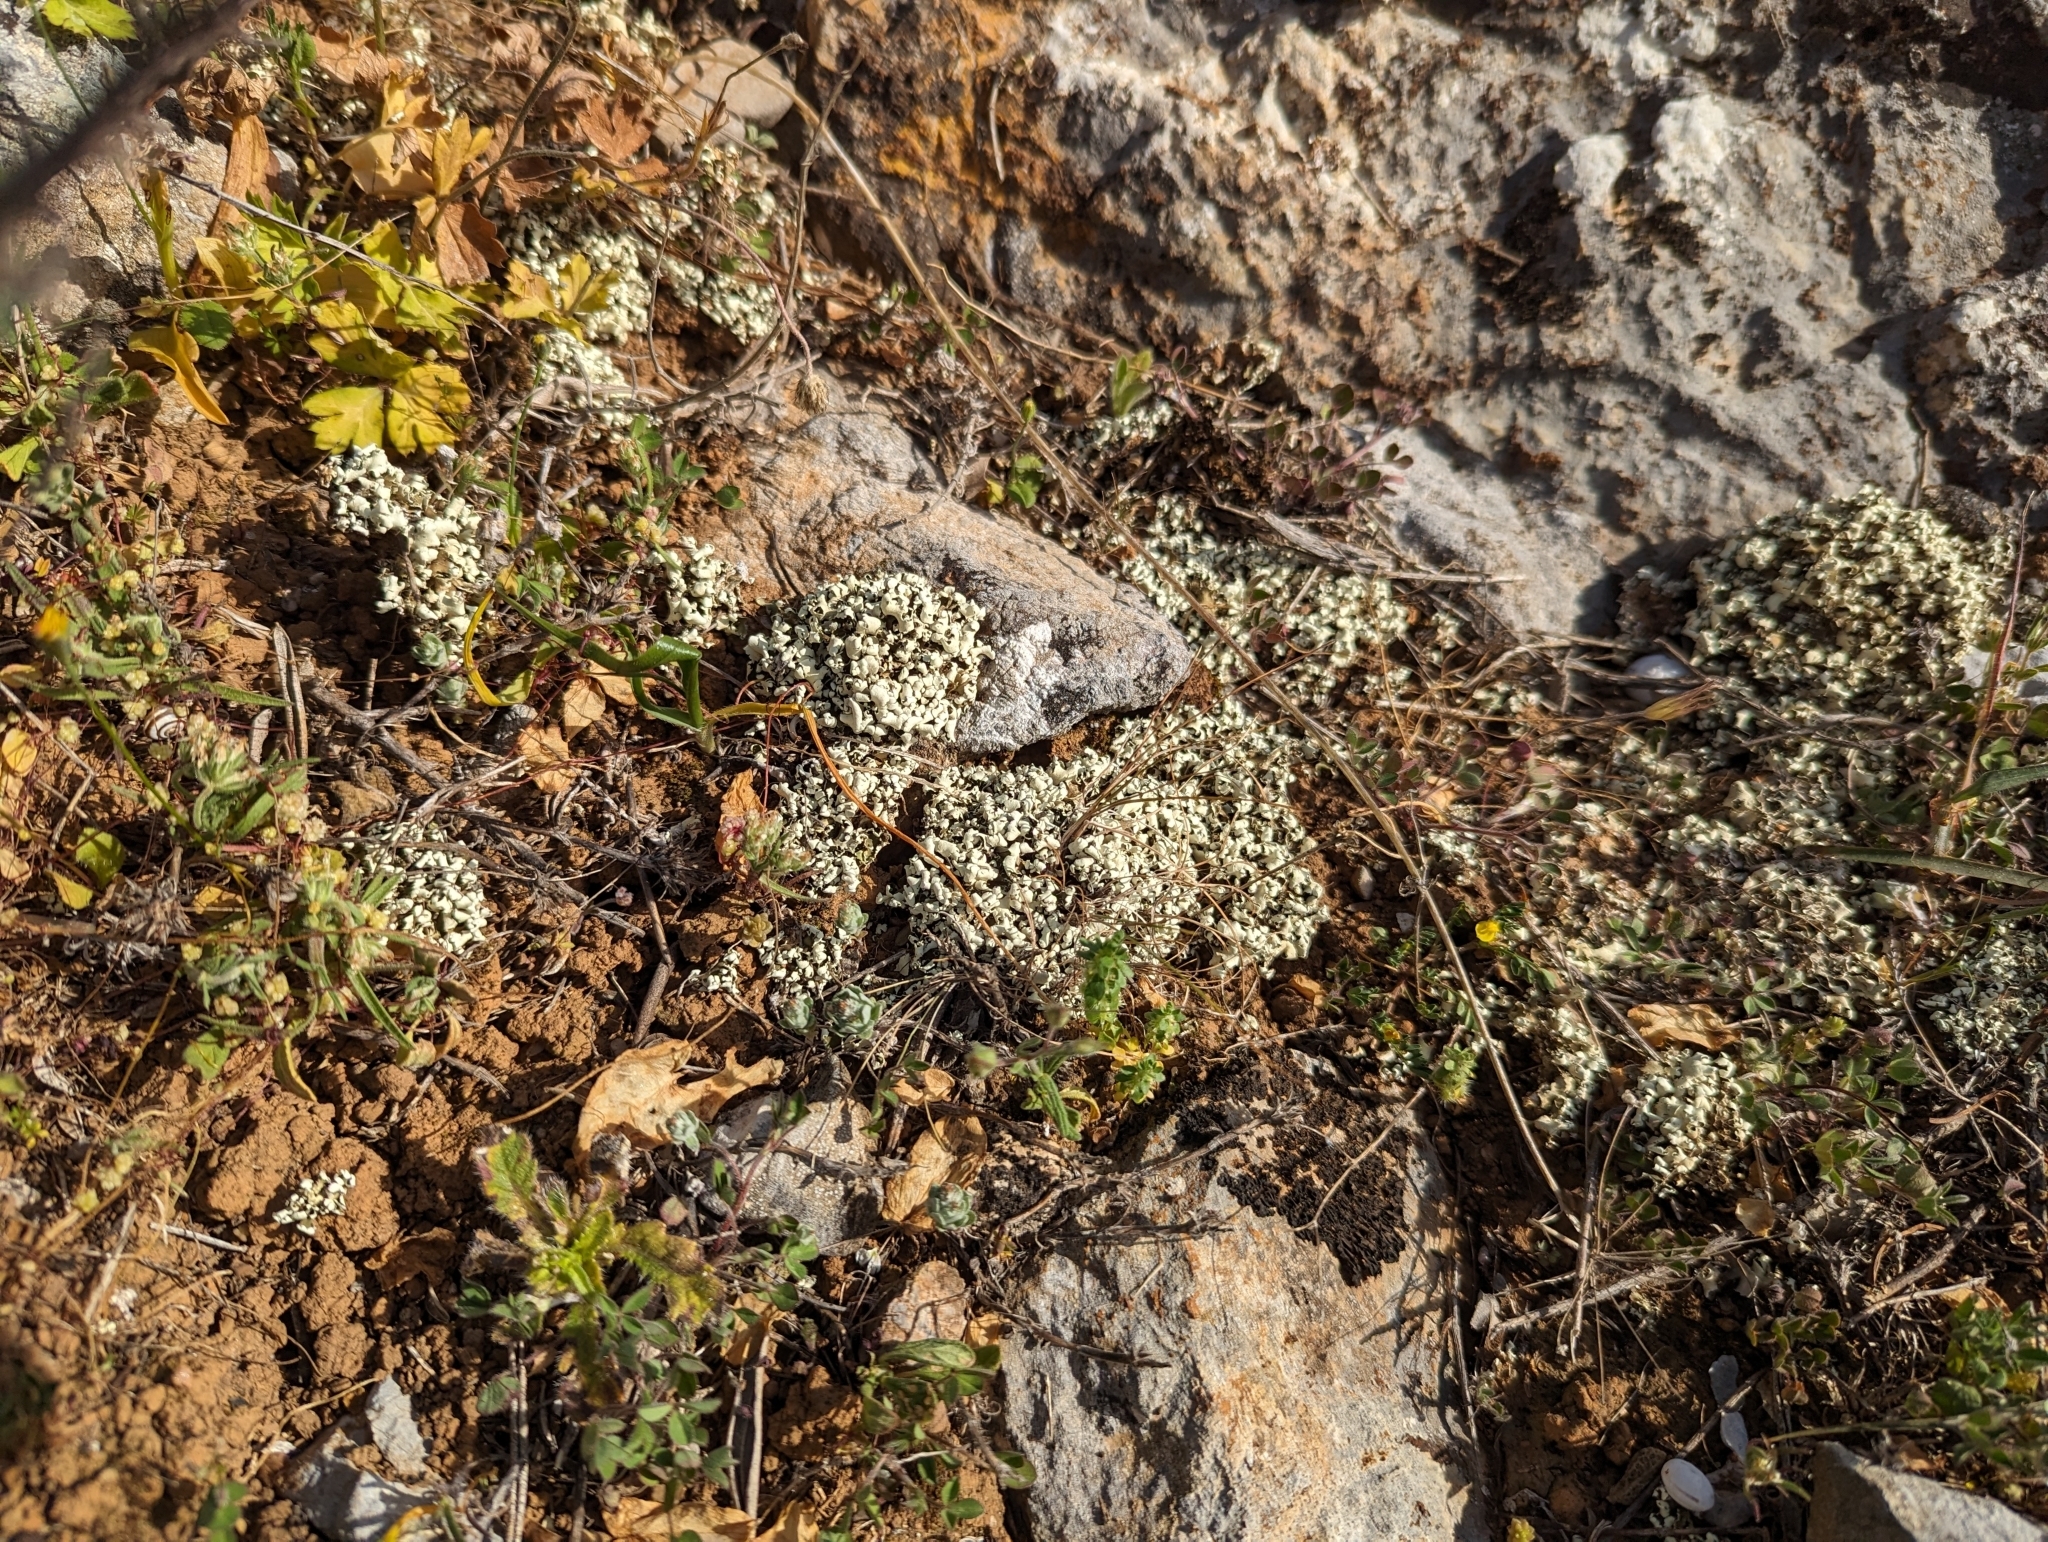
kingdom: Fungi
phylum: Ascomycota
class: Lecanoromycetes
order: Lecanorales
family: Cladoniaceae
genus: Cladonia
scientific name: Cladonia foliacea
